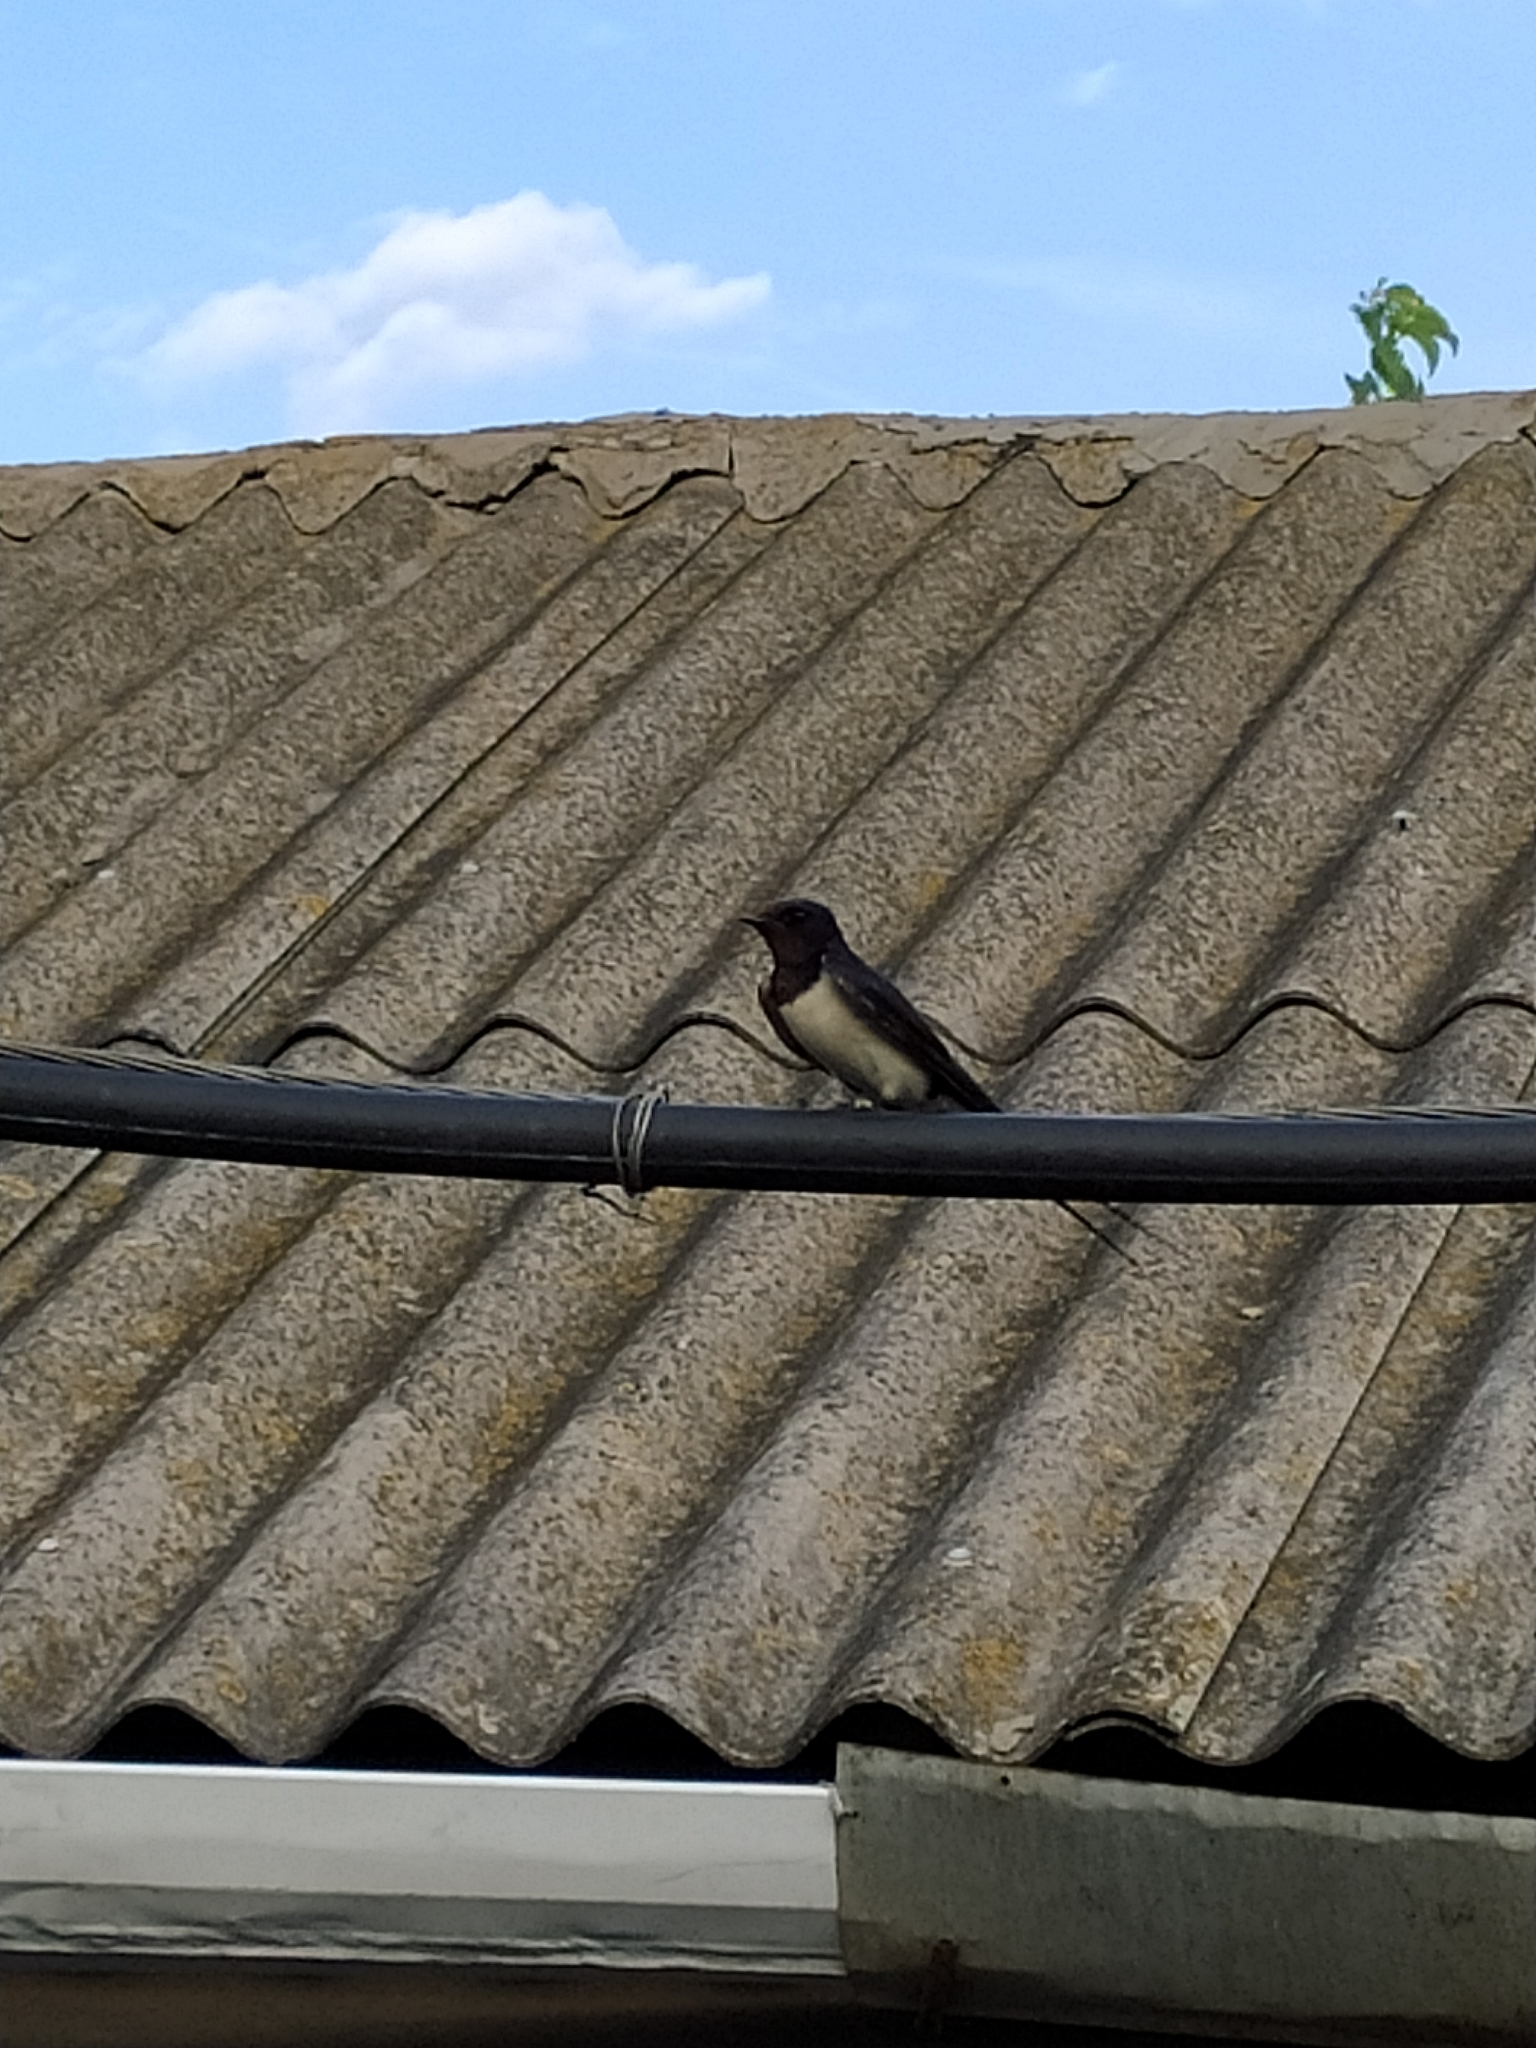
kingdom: Animalia
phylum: Chordata
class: Aves
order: Passeriformes
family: Hirundinidae
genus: Hirundo
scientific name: Hirundo rustica
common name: Barn swallow
